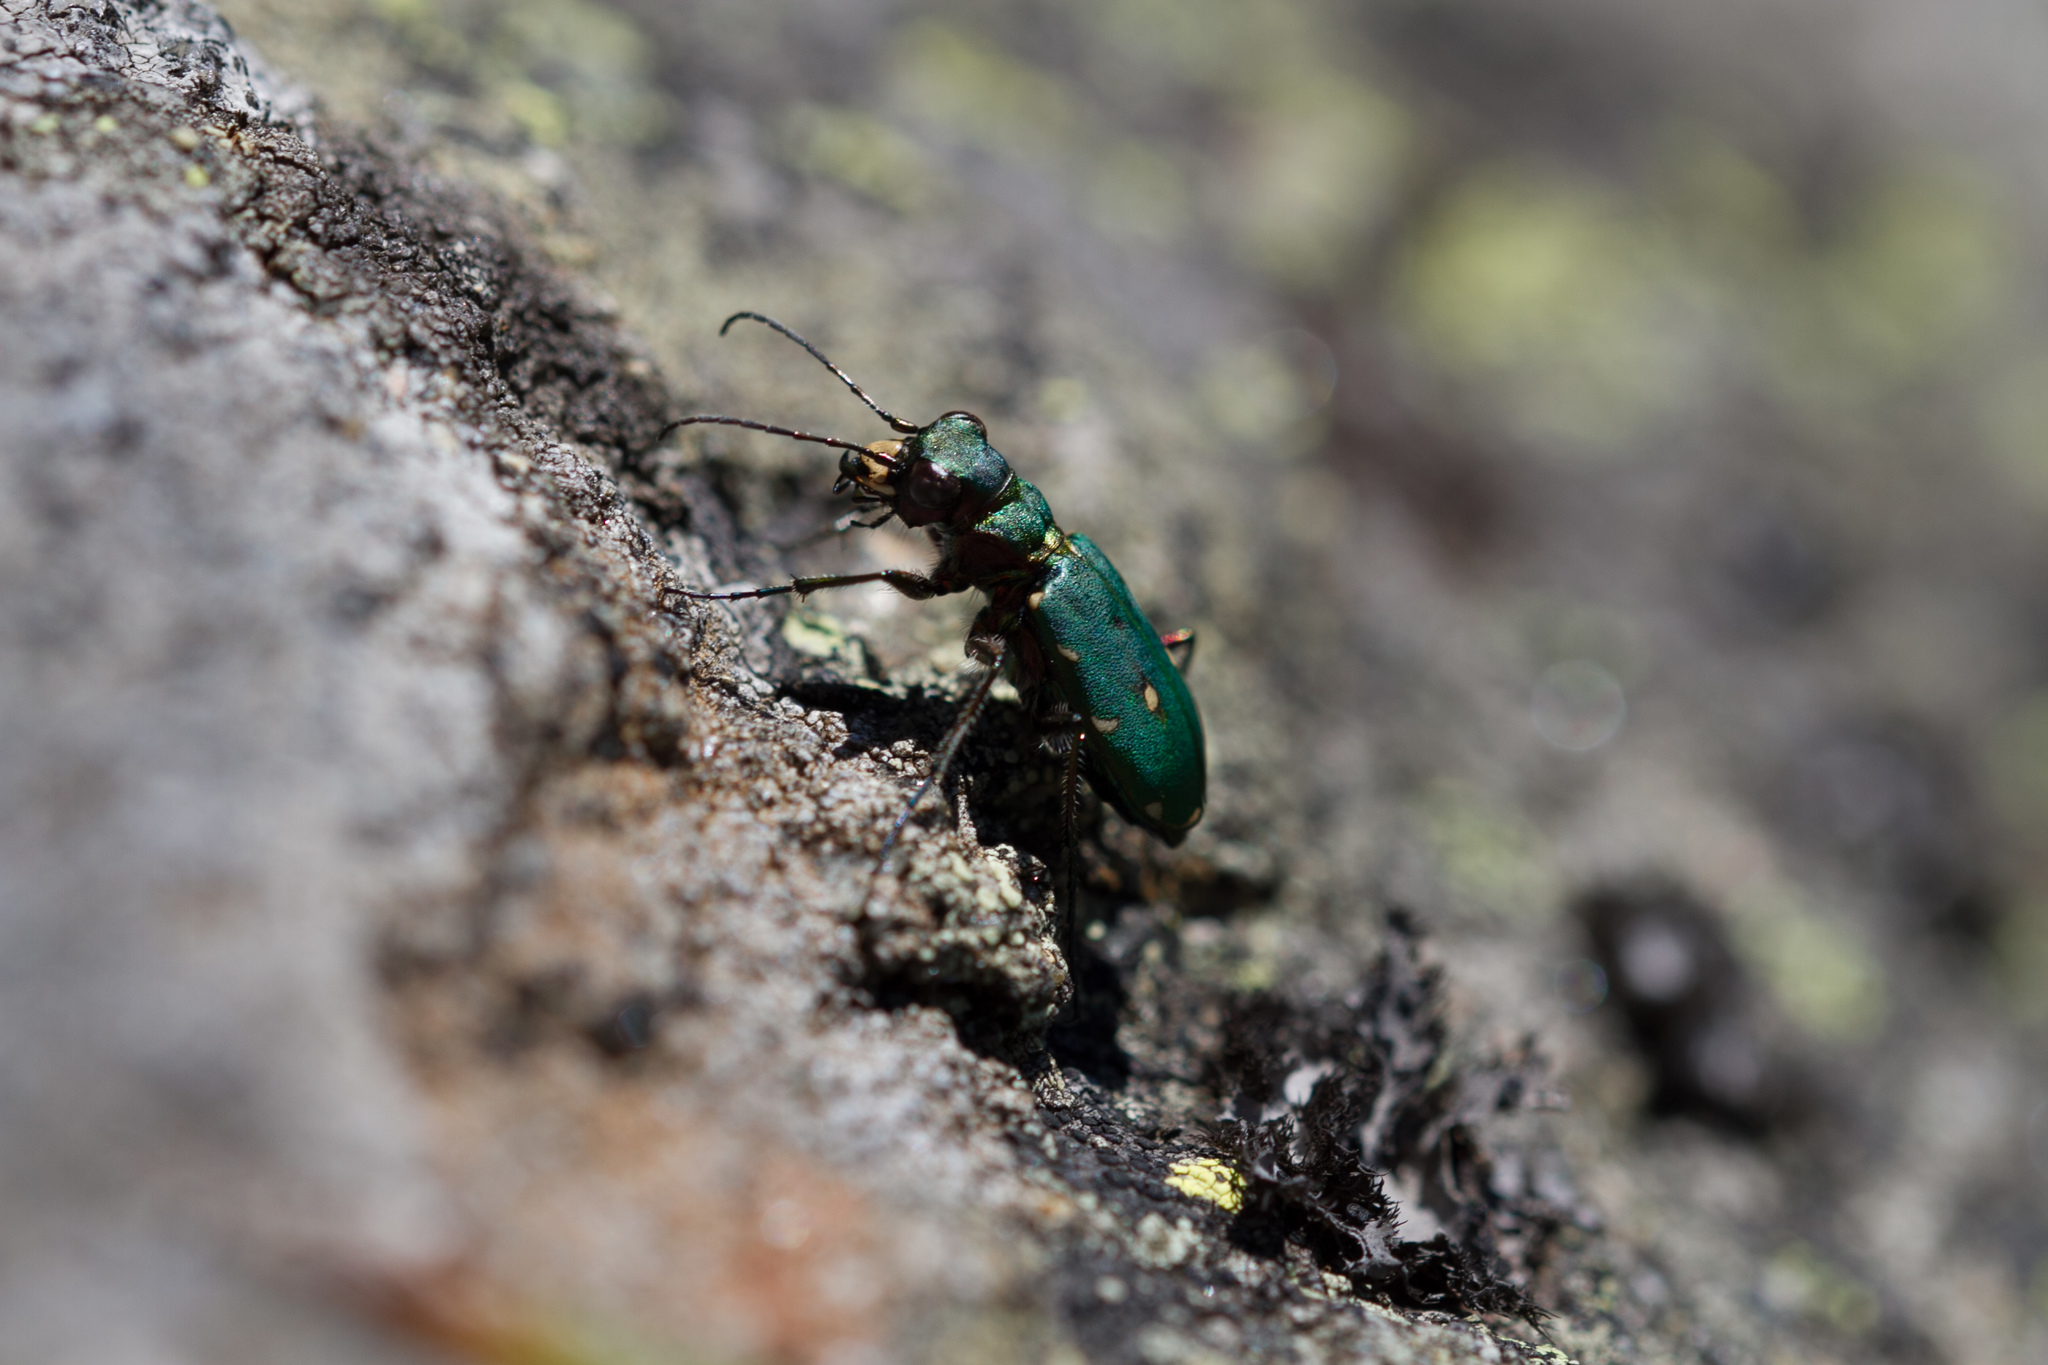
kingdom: Animalia
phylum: Arthropoda
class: Insecta
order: Coleoptera
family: Carabidae
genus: Cicindela
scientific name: Cicindela campestris
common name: Common tiger beetle
